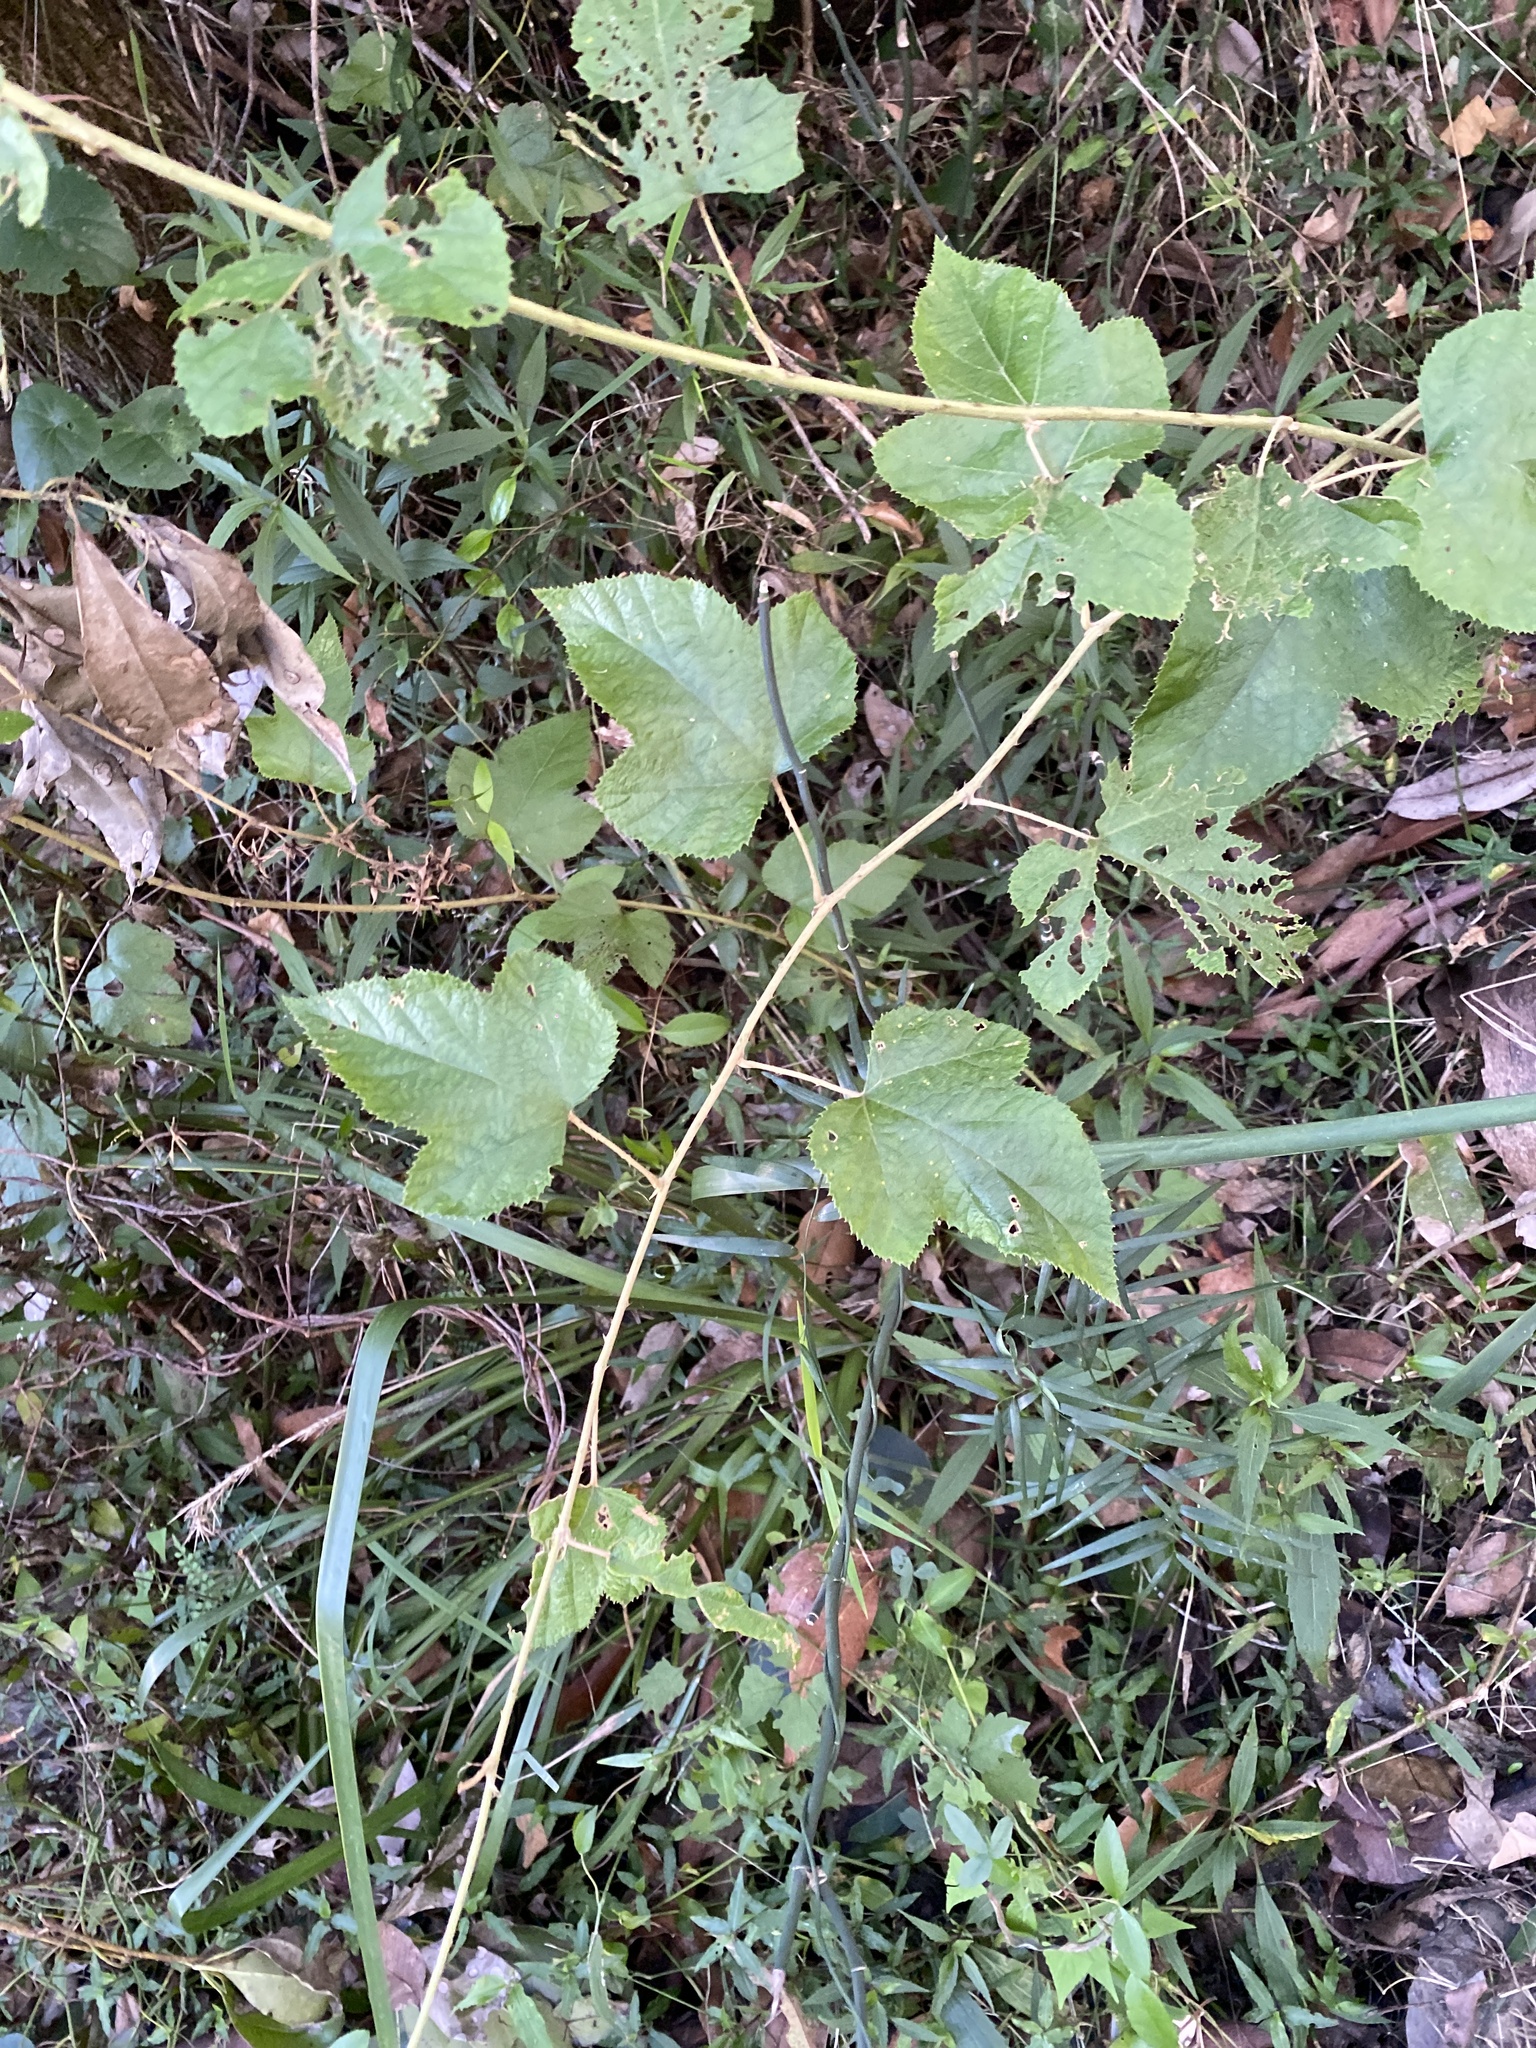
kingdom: Plantae
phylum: Tracheophyta
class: Magnoliopsida
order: Rosales
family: Rosaceae
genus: Rubus
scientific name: Rubus moluccanus
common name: Wild raspberry
